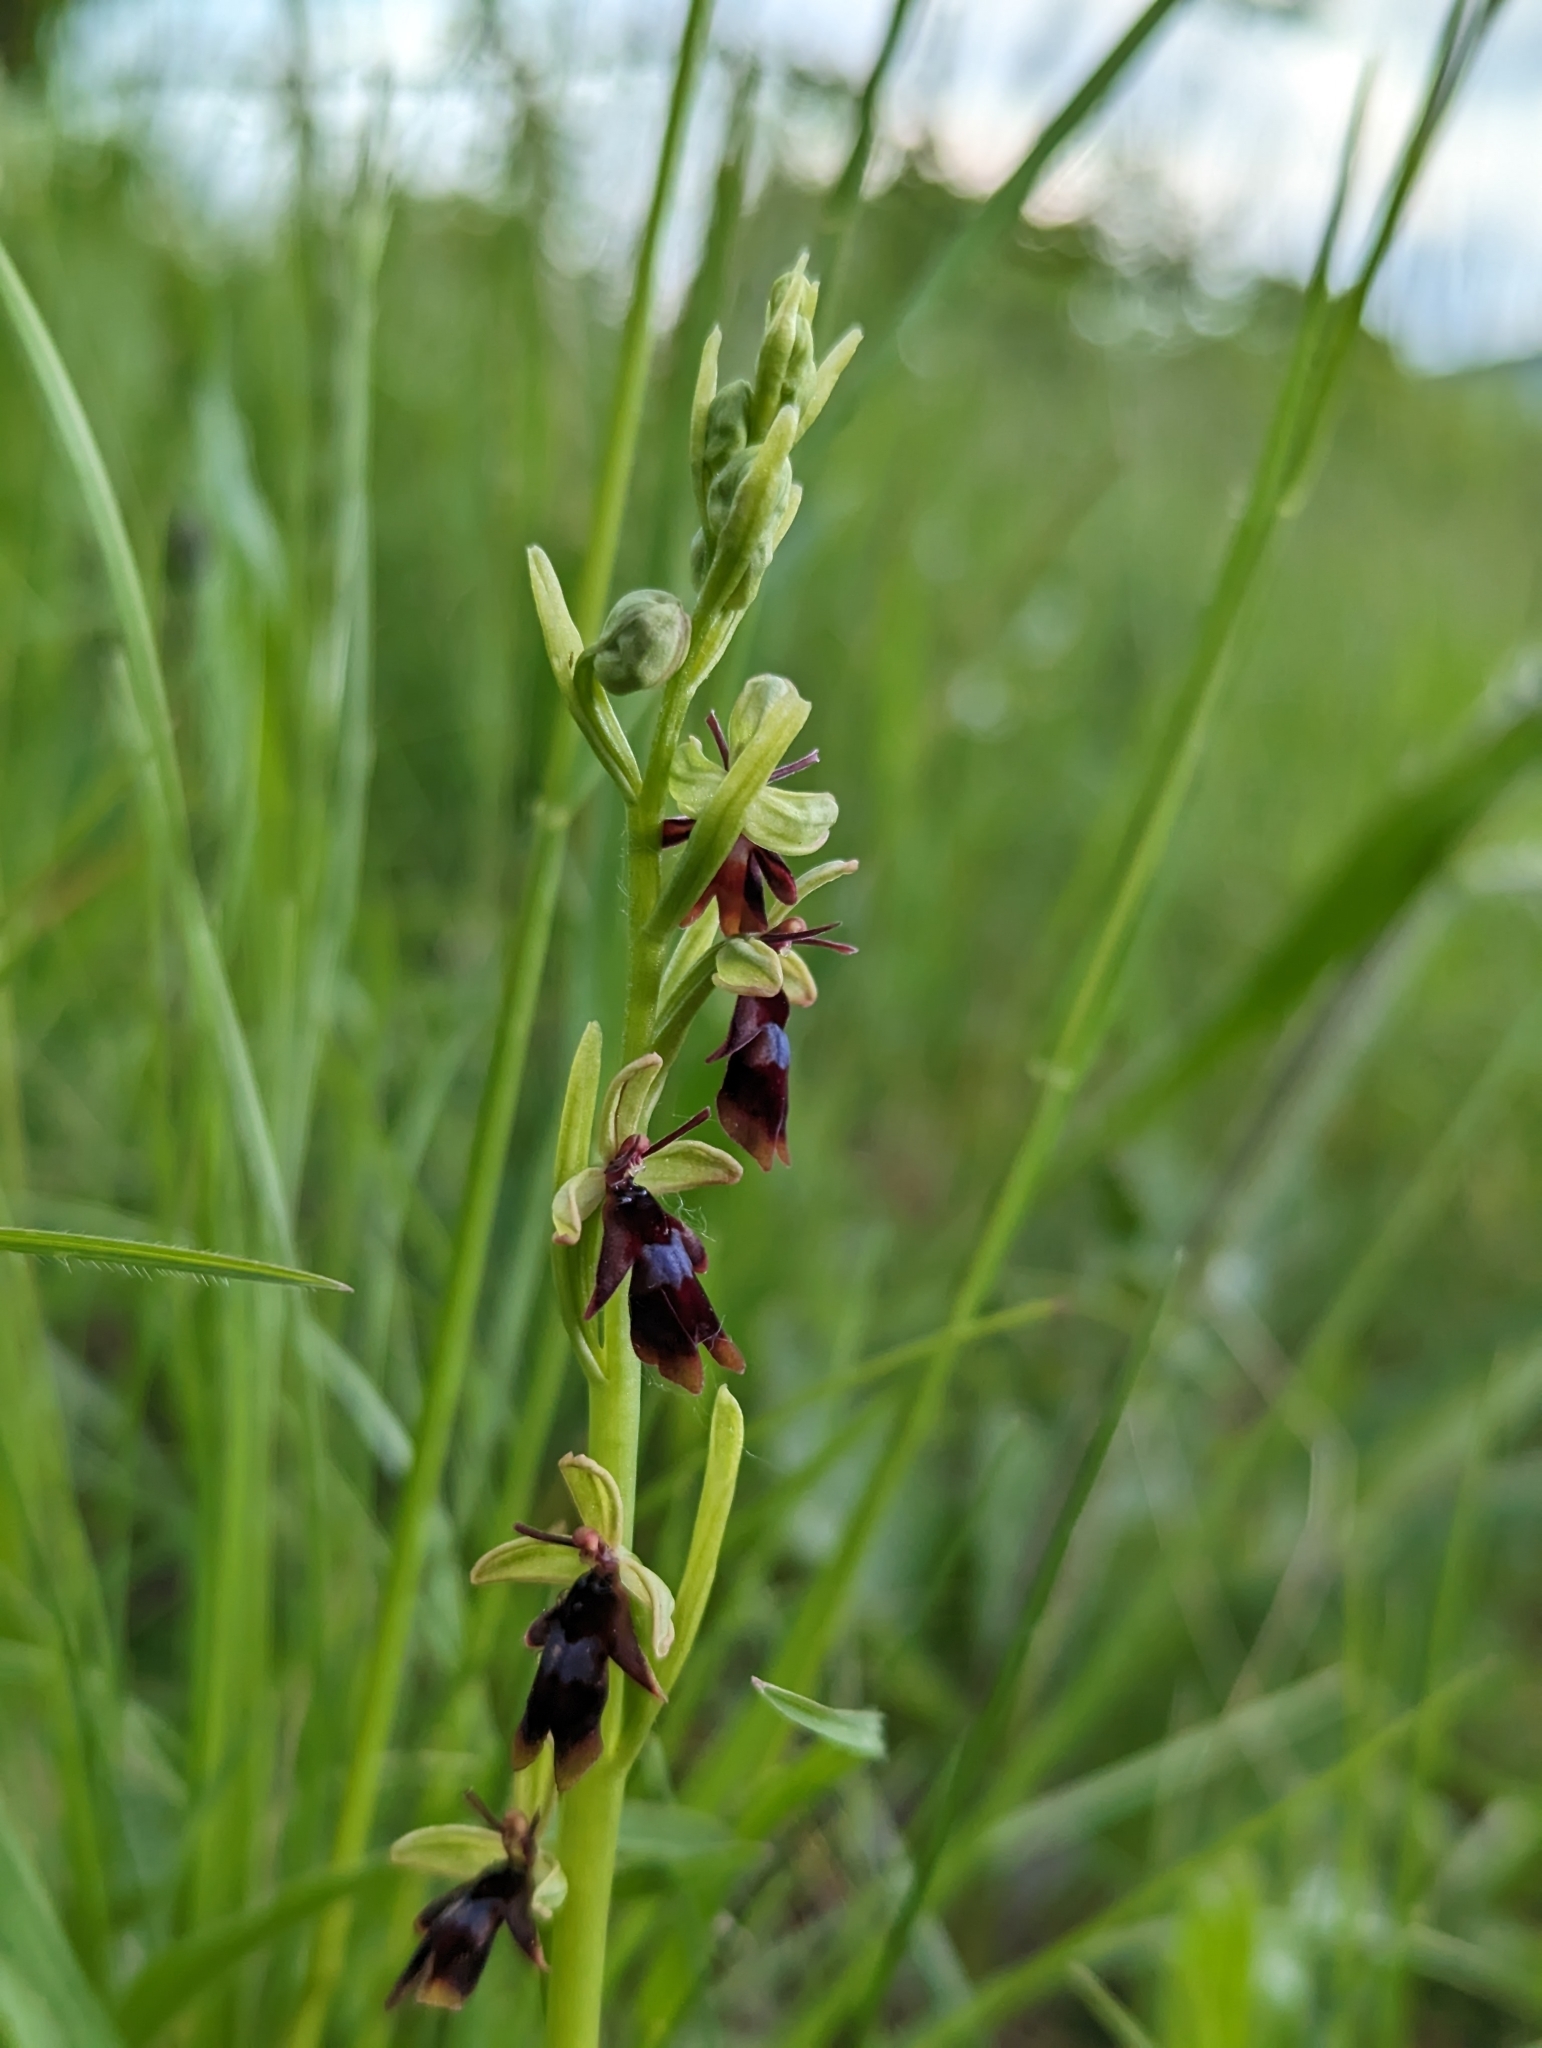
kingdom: Plantae
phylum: Tracheophyta
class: Liliopsida
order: Asparagales
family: Orchidaceae
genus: Ophrys
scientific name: Ophrys insectifera
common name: Fly orchid
